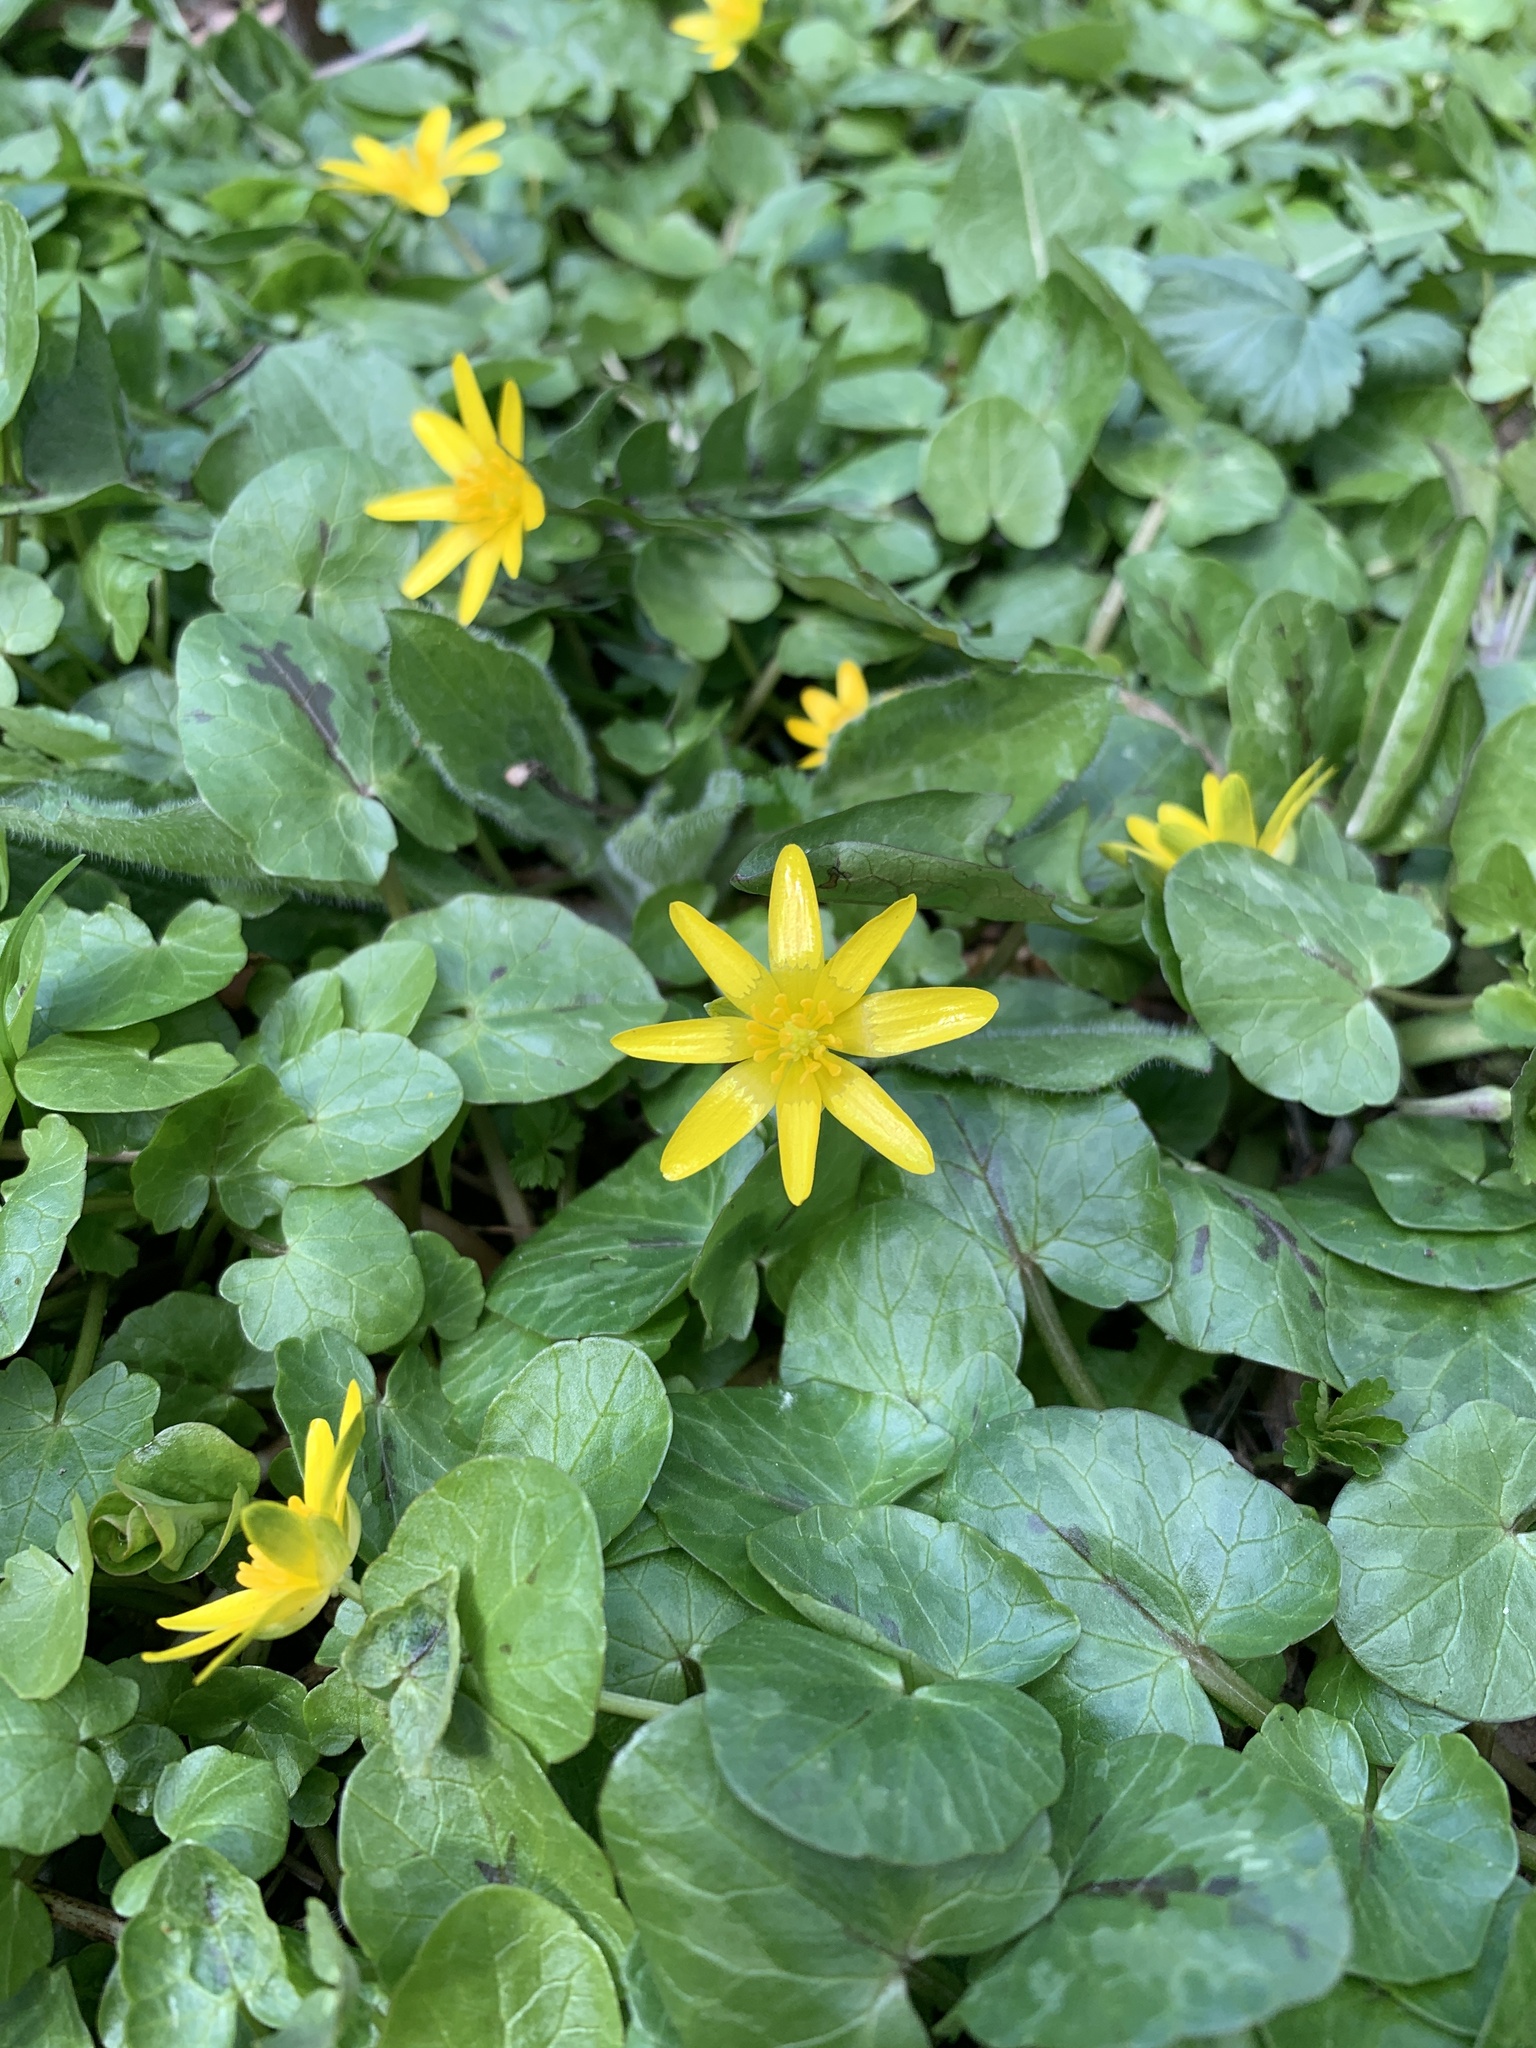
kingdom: Plantae
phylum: Tracheophyta
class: Magnoliopsida
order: Ranunculales
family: Ranunculaceae
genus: Ficaria
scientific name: Ficaria verna
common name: Lesser celandine
